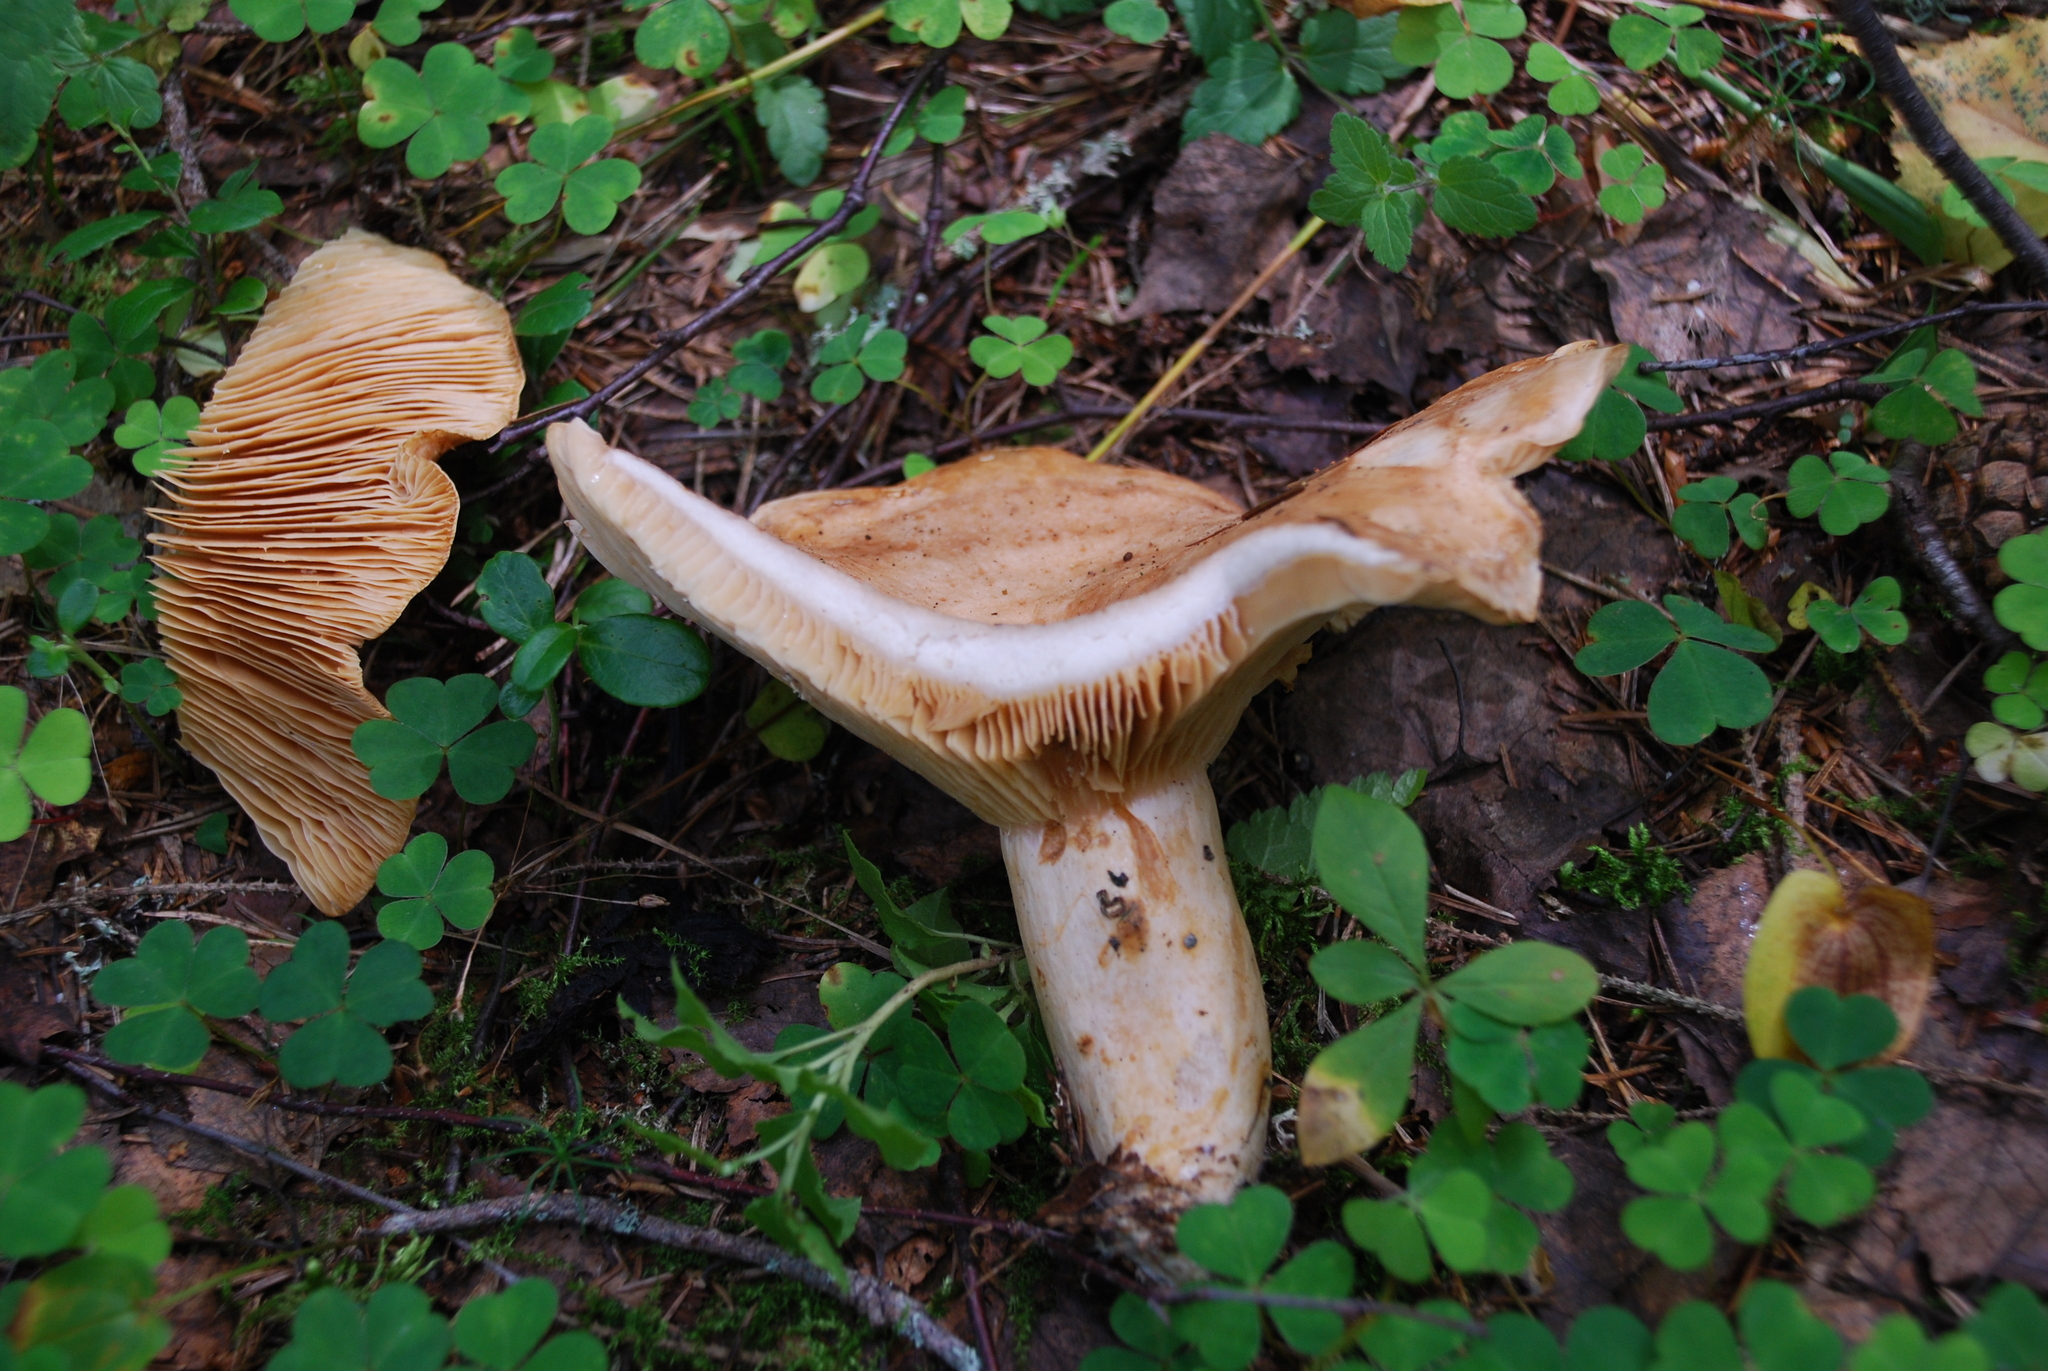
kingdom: Fungi
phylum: Basidiomycota
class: Agaricomycetes
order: Russulales
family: Russulaceae
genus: Lactarius
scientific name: Lactarius utilis
